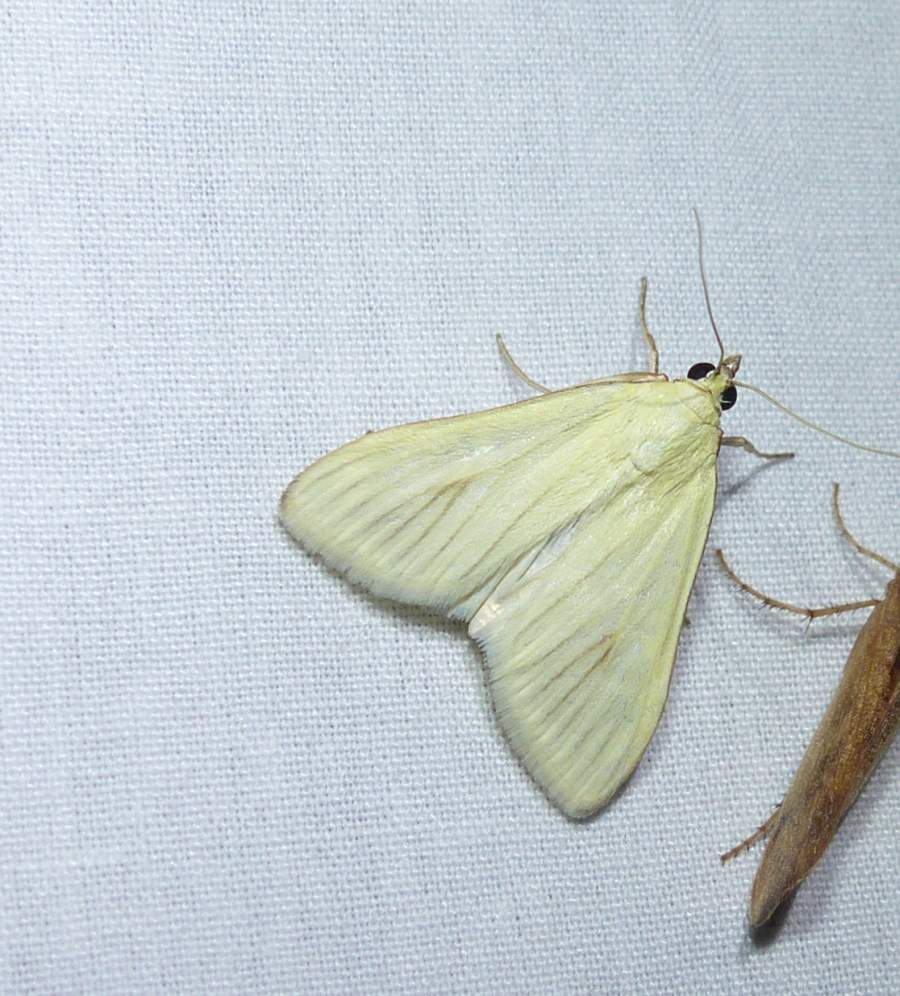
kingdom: Animalia
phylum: Arthropoda
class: Insecta
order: Lepidoptera
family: Crambidae
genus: Sitochroa
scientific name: Sitochroa palealis
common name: Greenish-yellow sitochroa moth
